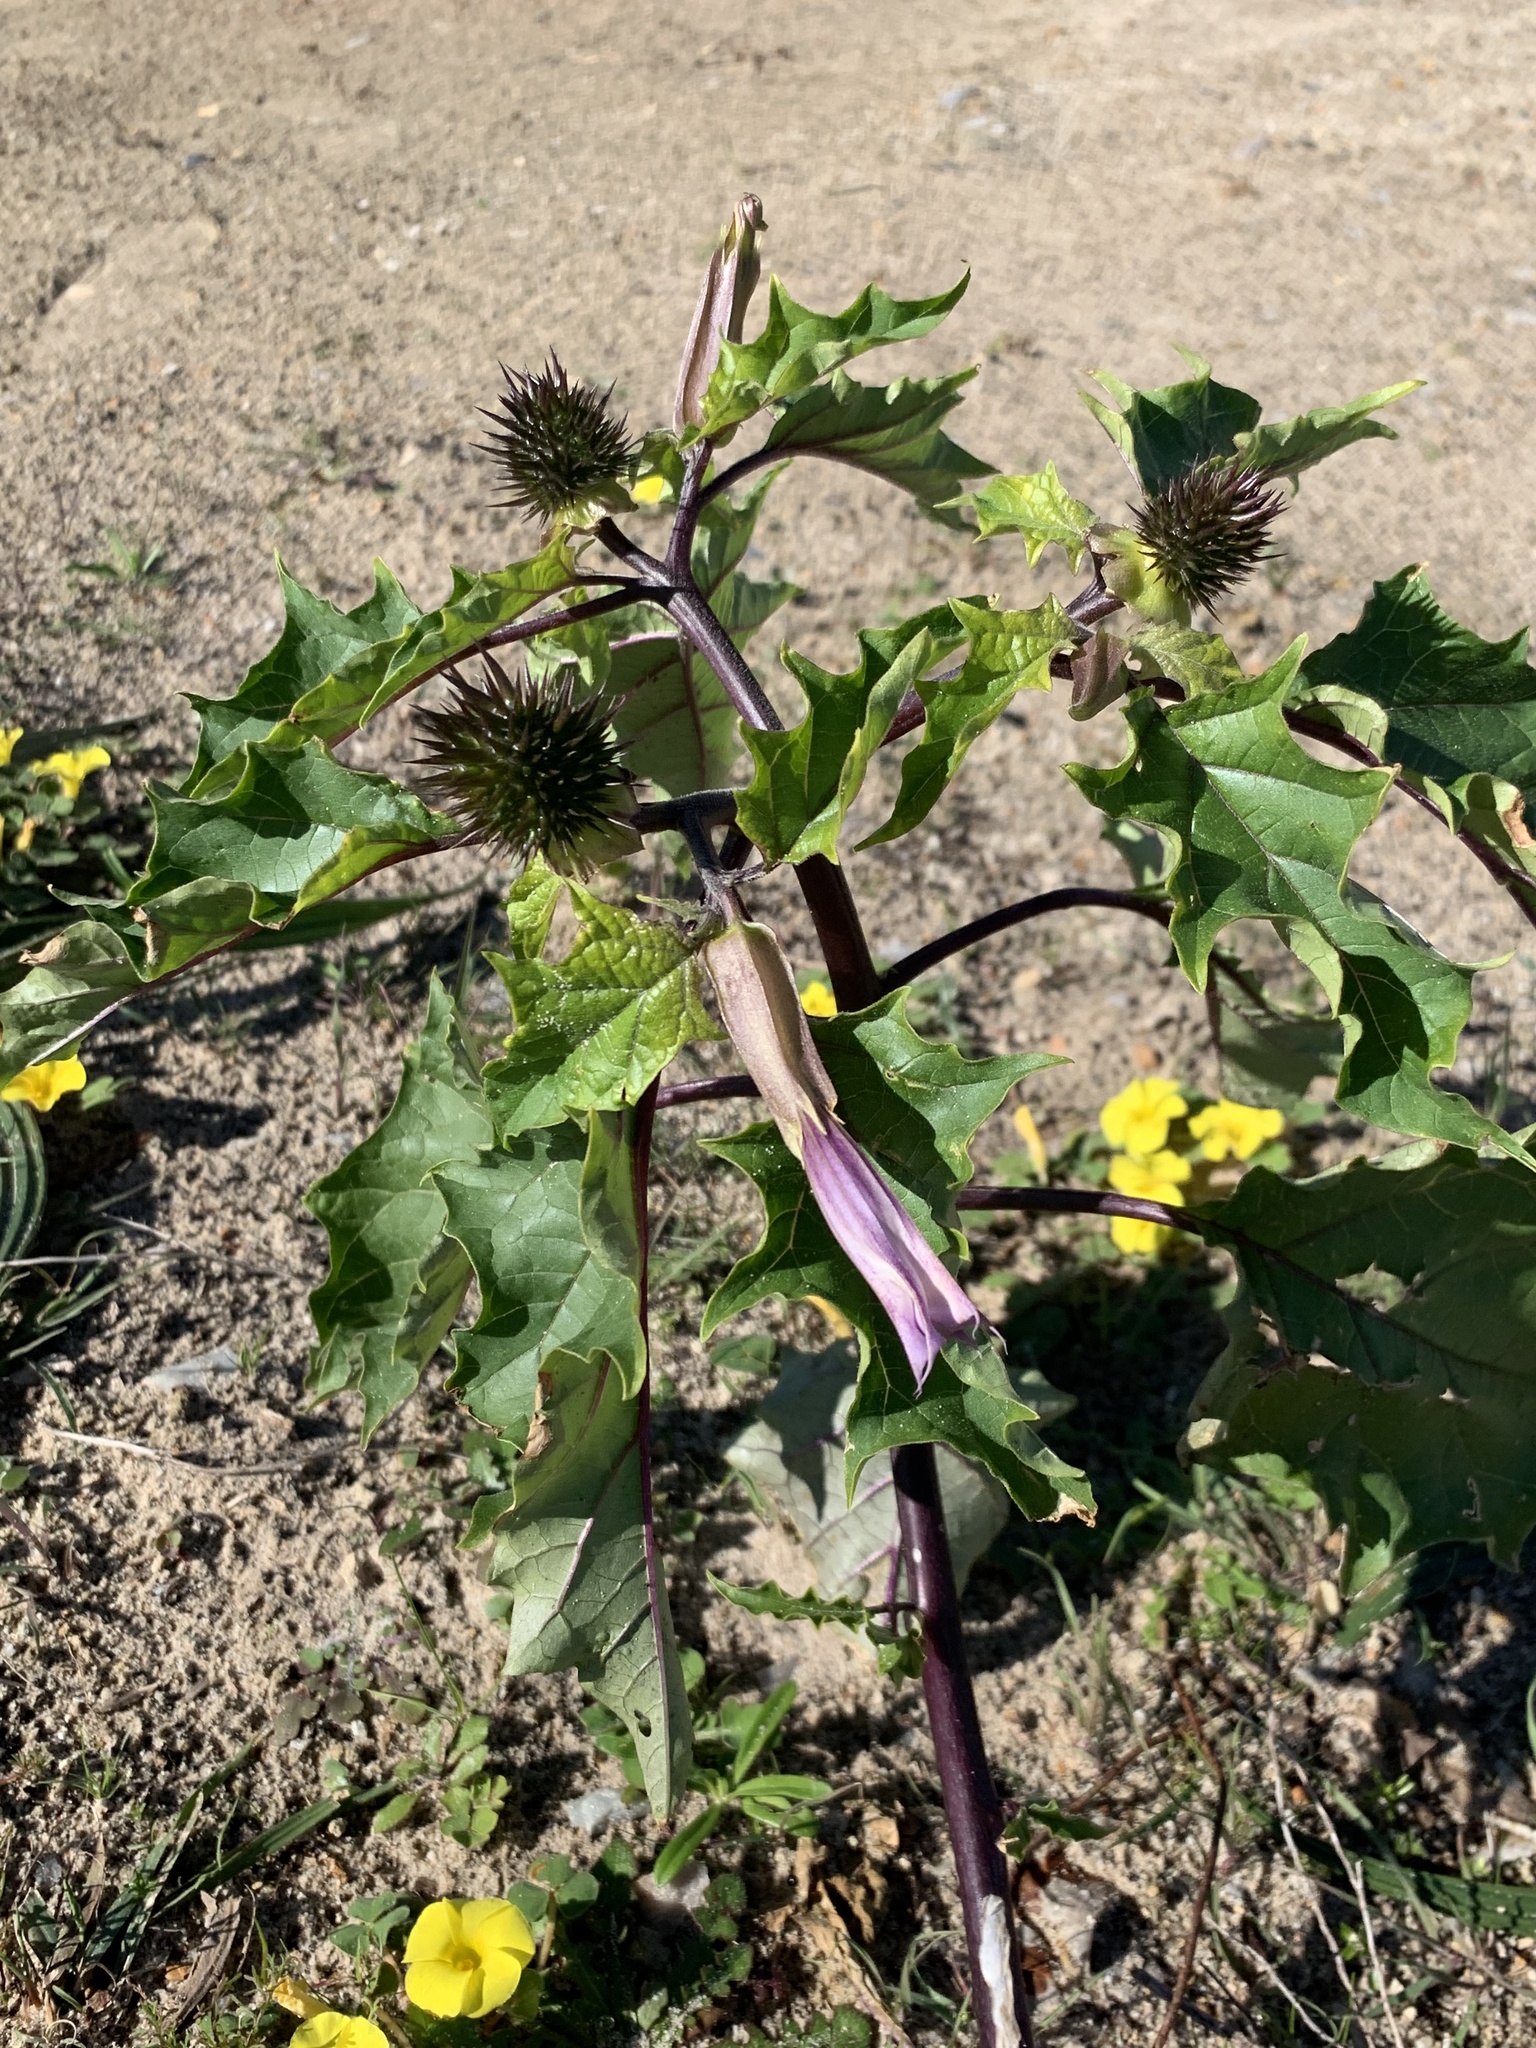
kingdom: Plantae
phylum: Tracheophyta
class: Magnoliopsida
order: Solanales
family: Solanaceae
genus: Datura
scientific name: Datura stramonium
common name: Thorn-apple
